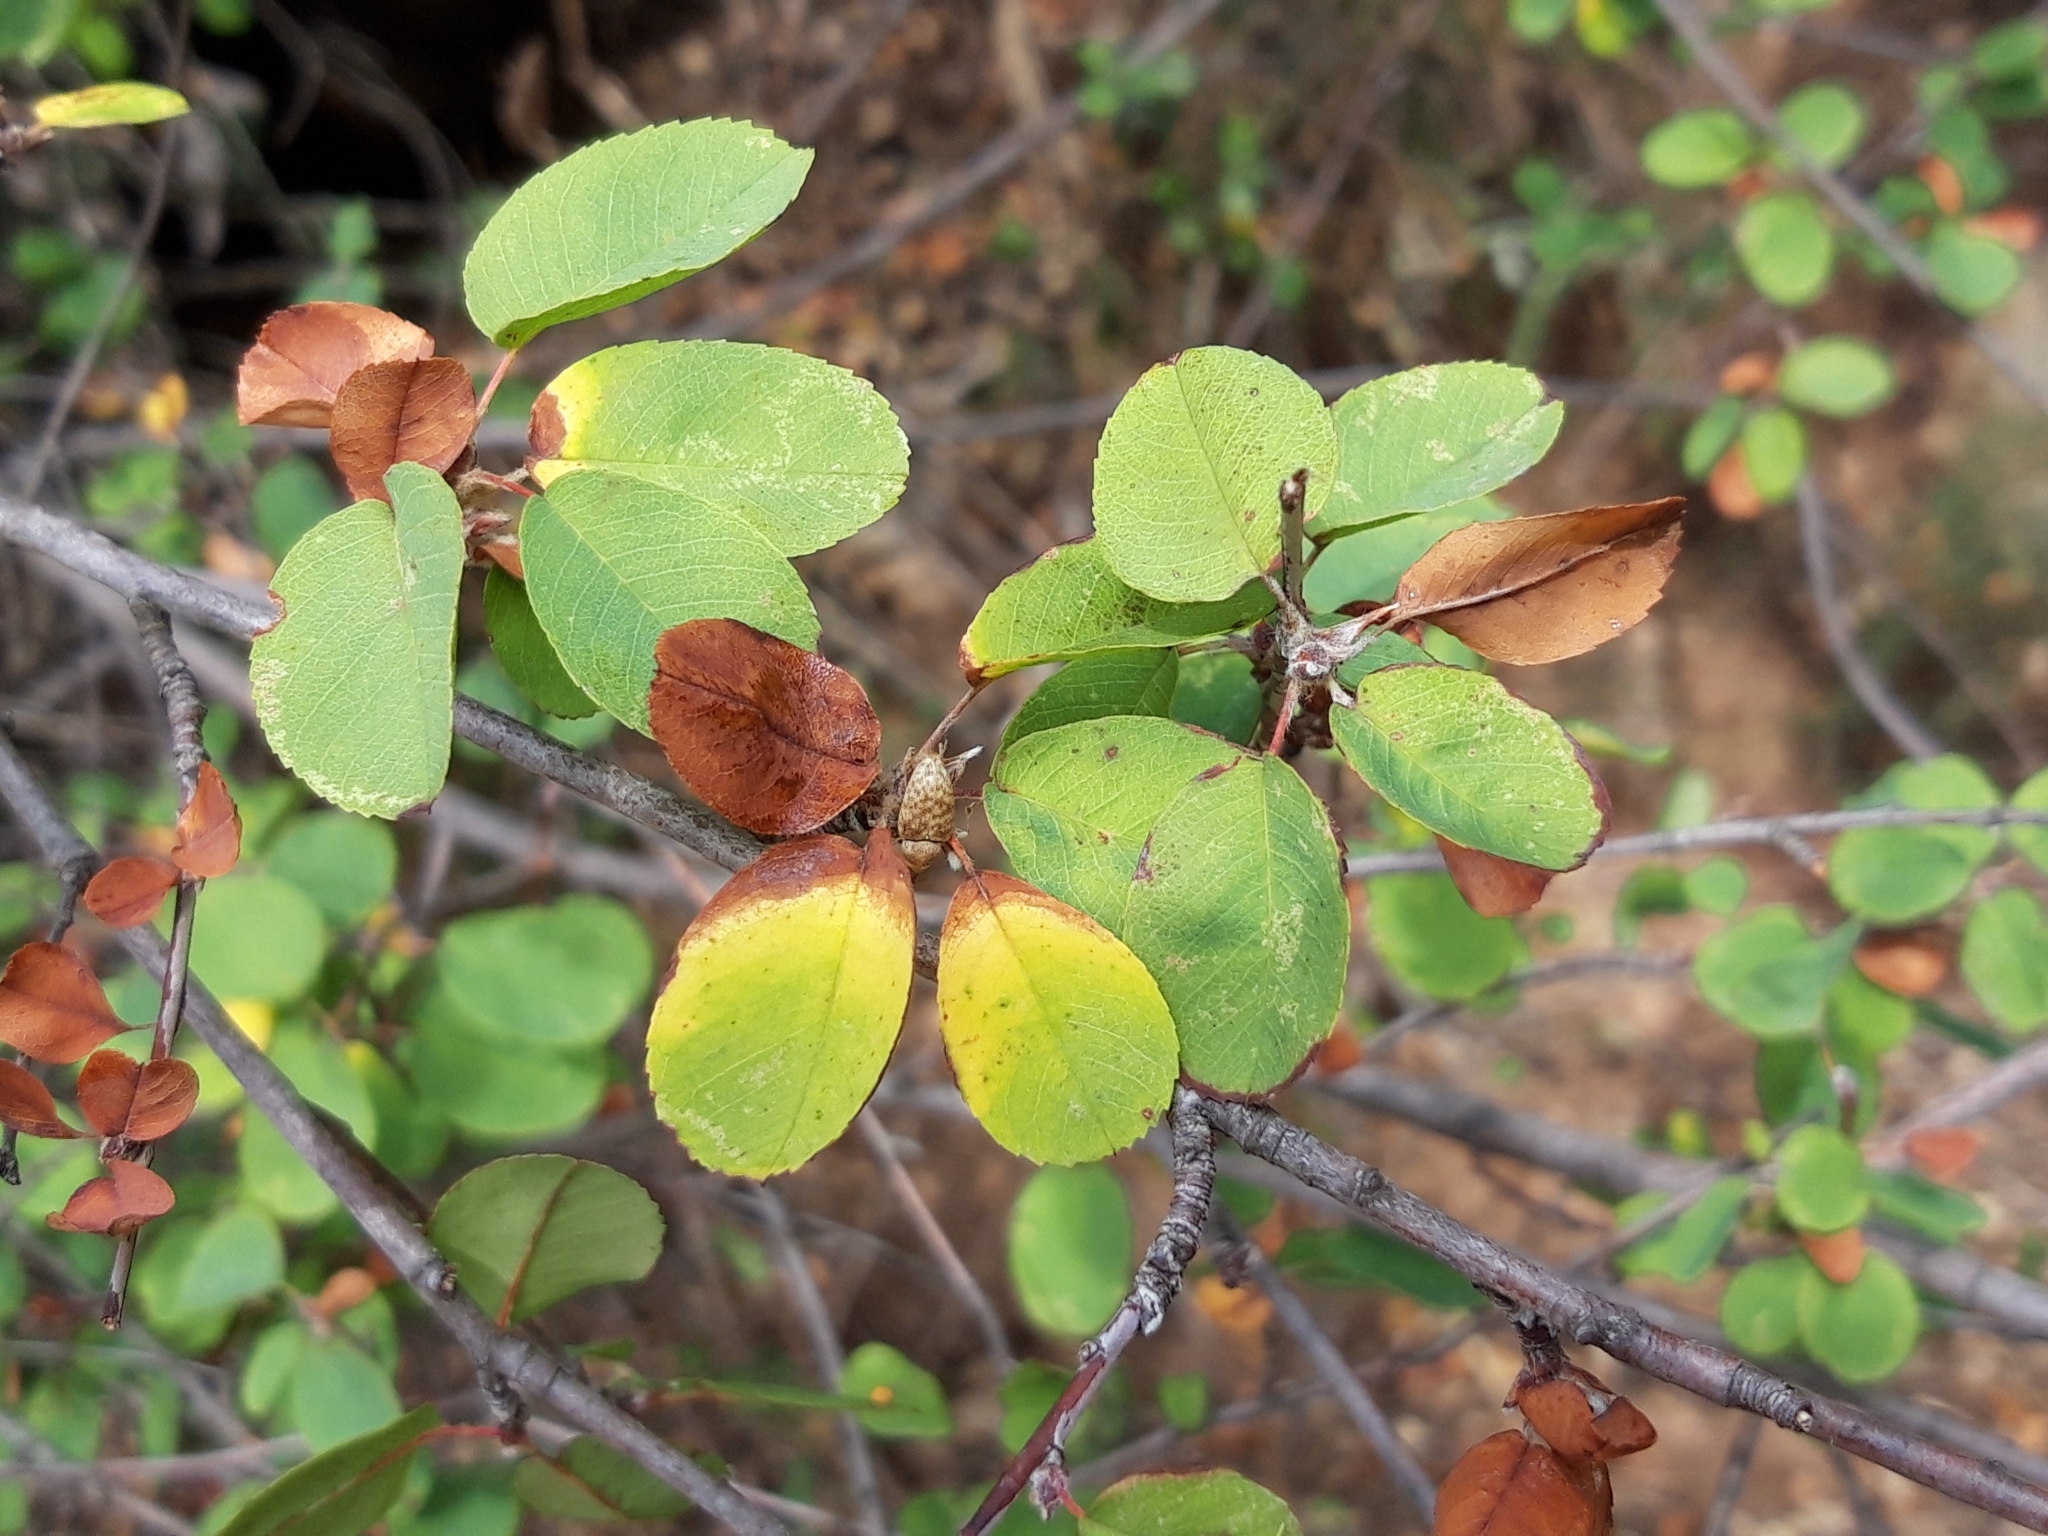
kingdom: Plantae
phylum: Tracheophyta
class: Magnoliopsida
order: Rosales
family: Rosaceae
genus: Amelanchier
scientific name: Amelanchier ovalis
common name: Serviceberry
